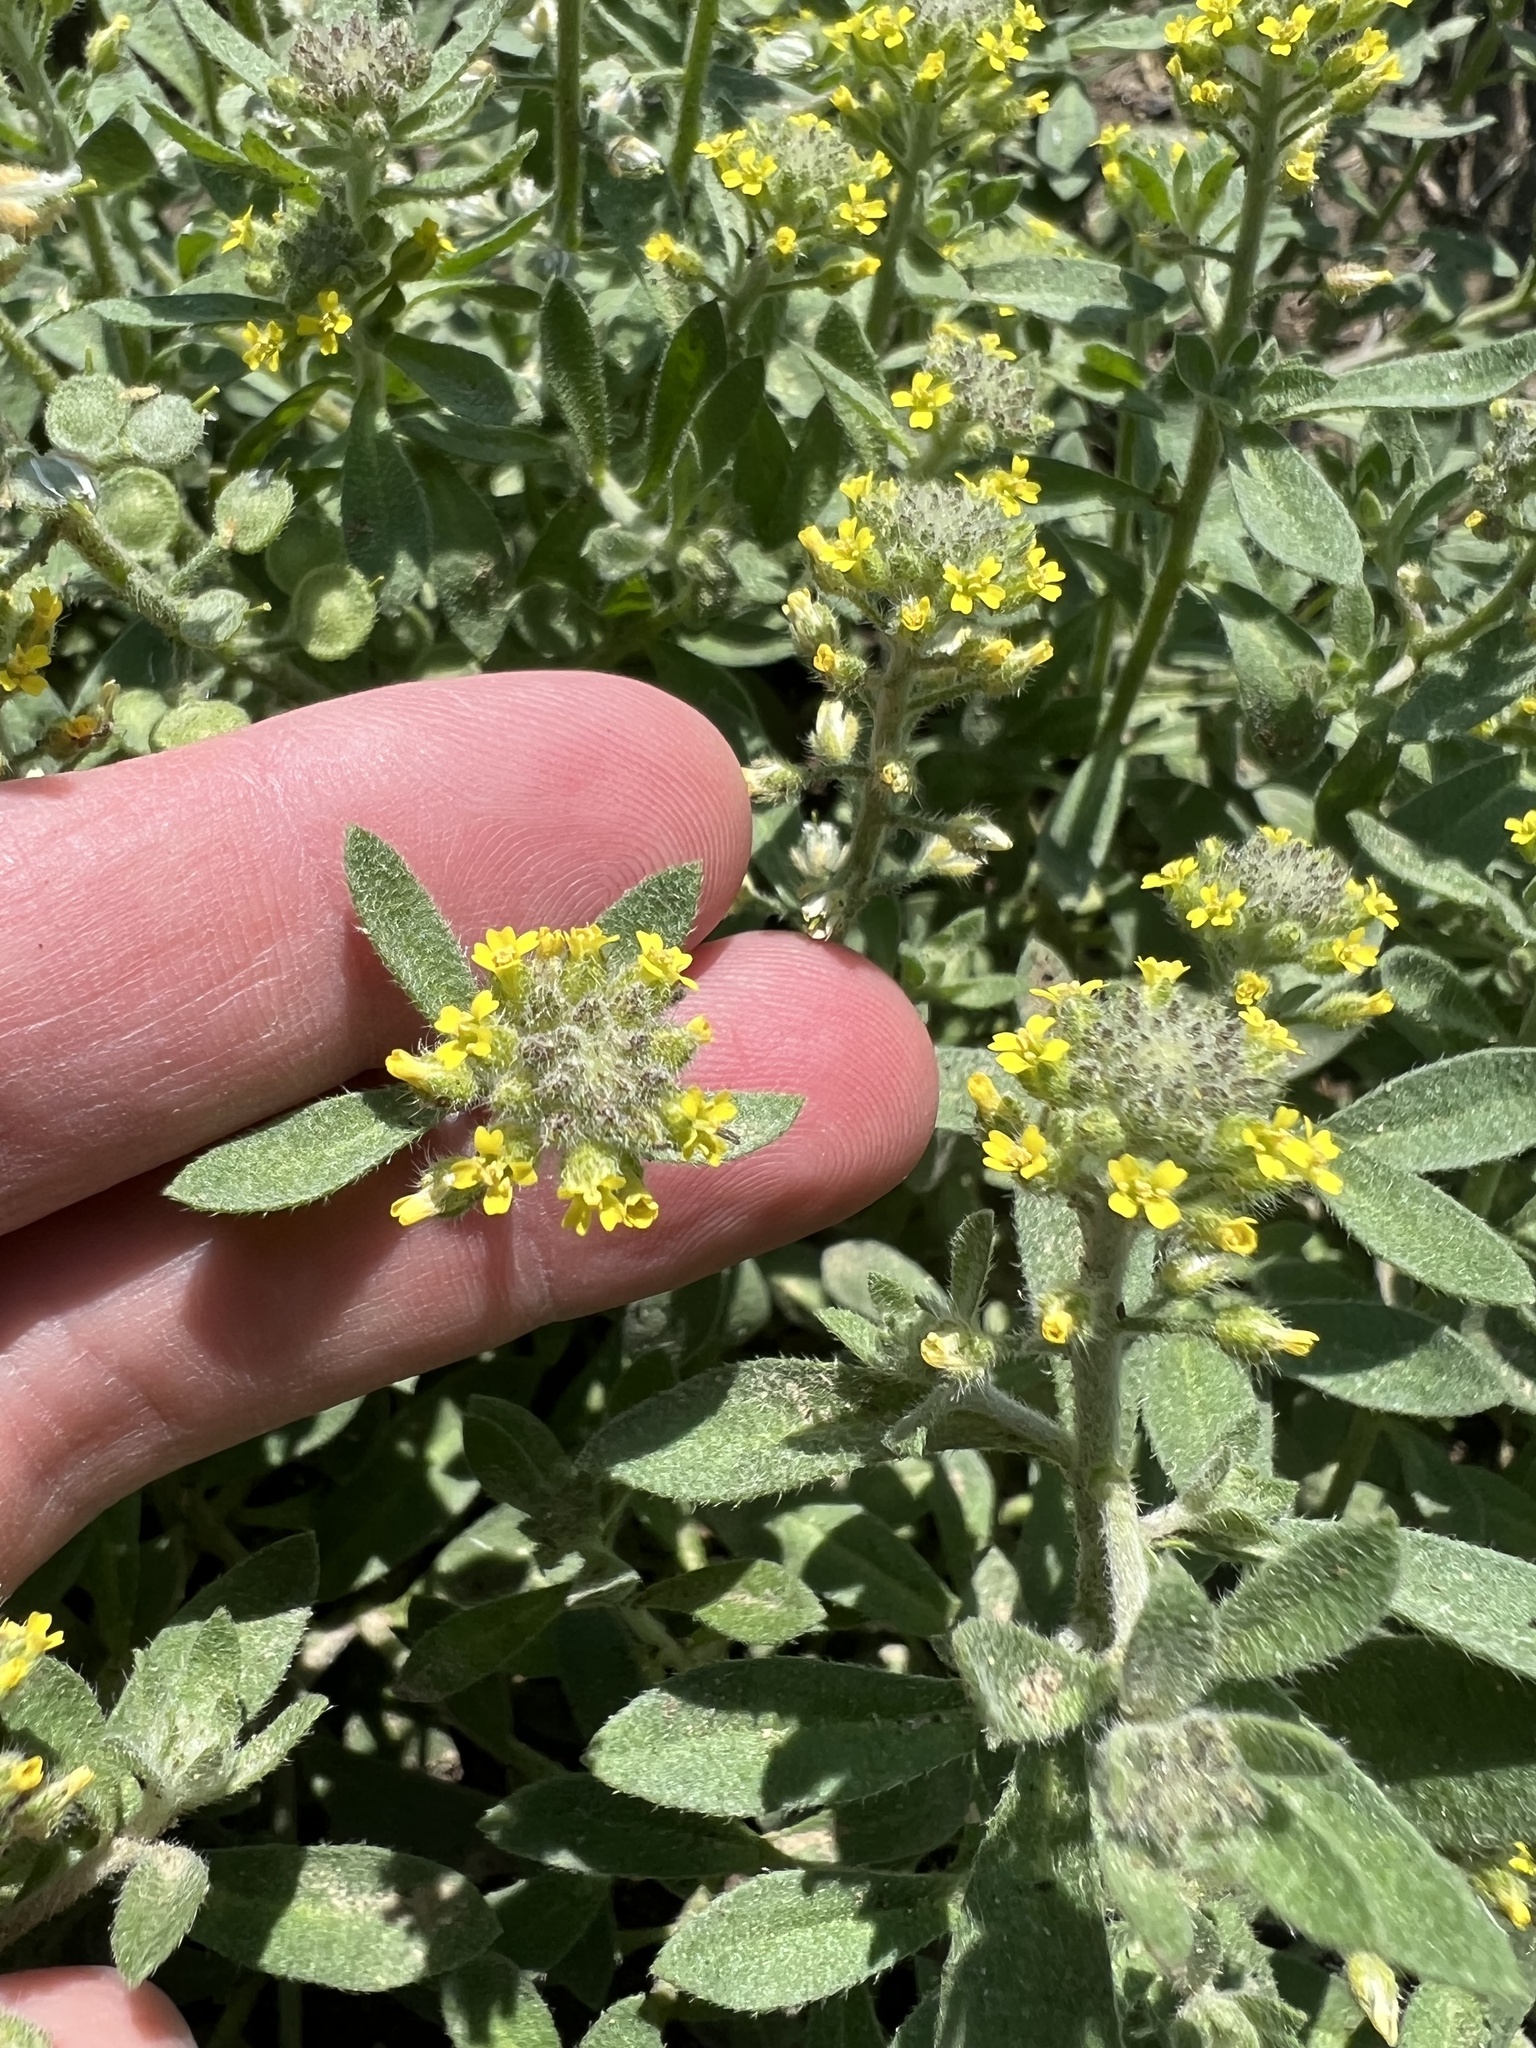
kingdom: Plantae
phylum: Tracheophyta
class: Magnoliopsida
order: Brassicales
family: Brassicaceae
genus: Alyssum
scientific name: Alyssum simplex
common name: Alyssum
